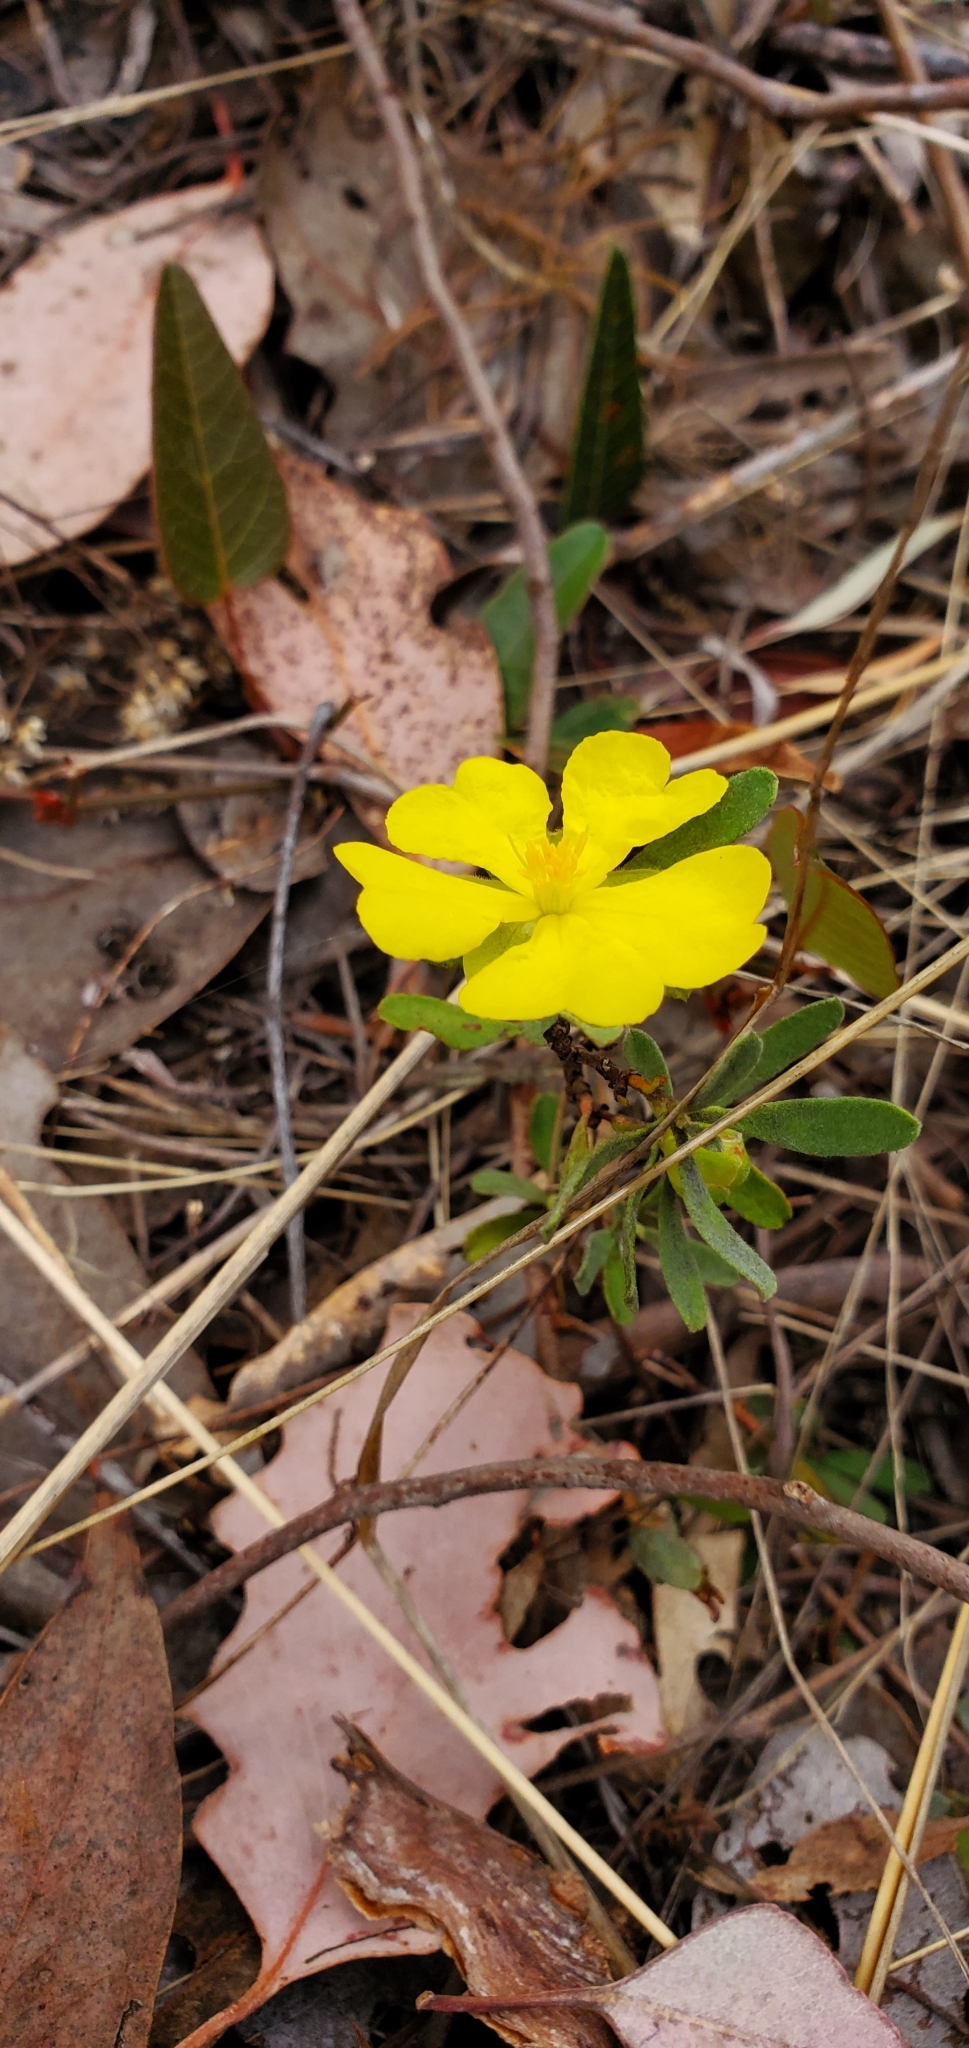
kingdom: Plantae
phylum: Tracheophyta
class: Magnoliopsida
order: Dilleniales
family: Dilleniaceae
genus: Hibbertia
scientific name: Hibbertia obtusifolia
